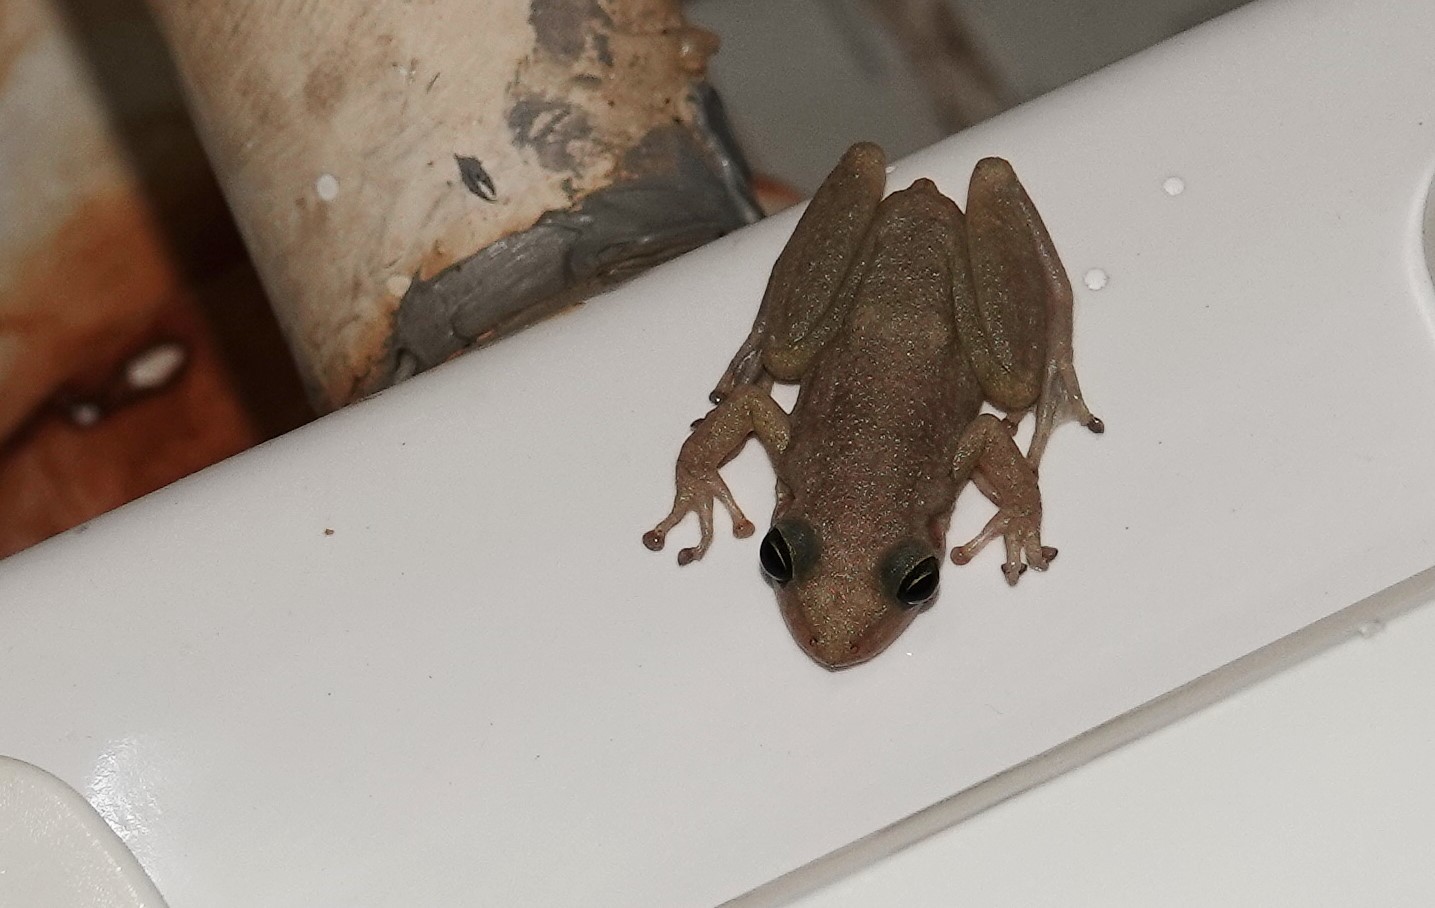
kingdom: Animalia
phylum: Chordata
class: Amphibia
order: Anura
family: Hylidae
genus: Scinax
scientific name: Scinax ruber
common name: Red snouted treefrog
